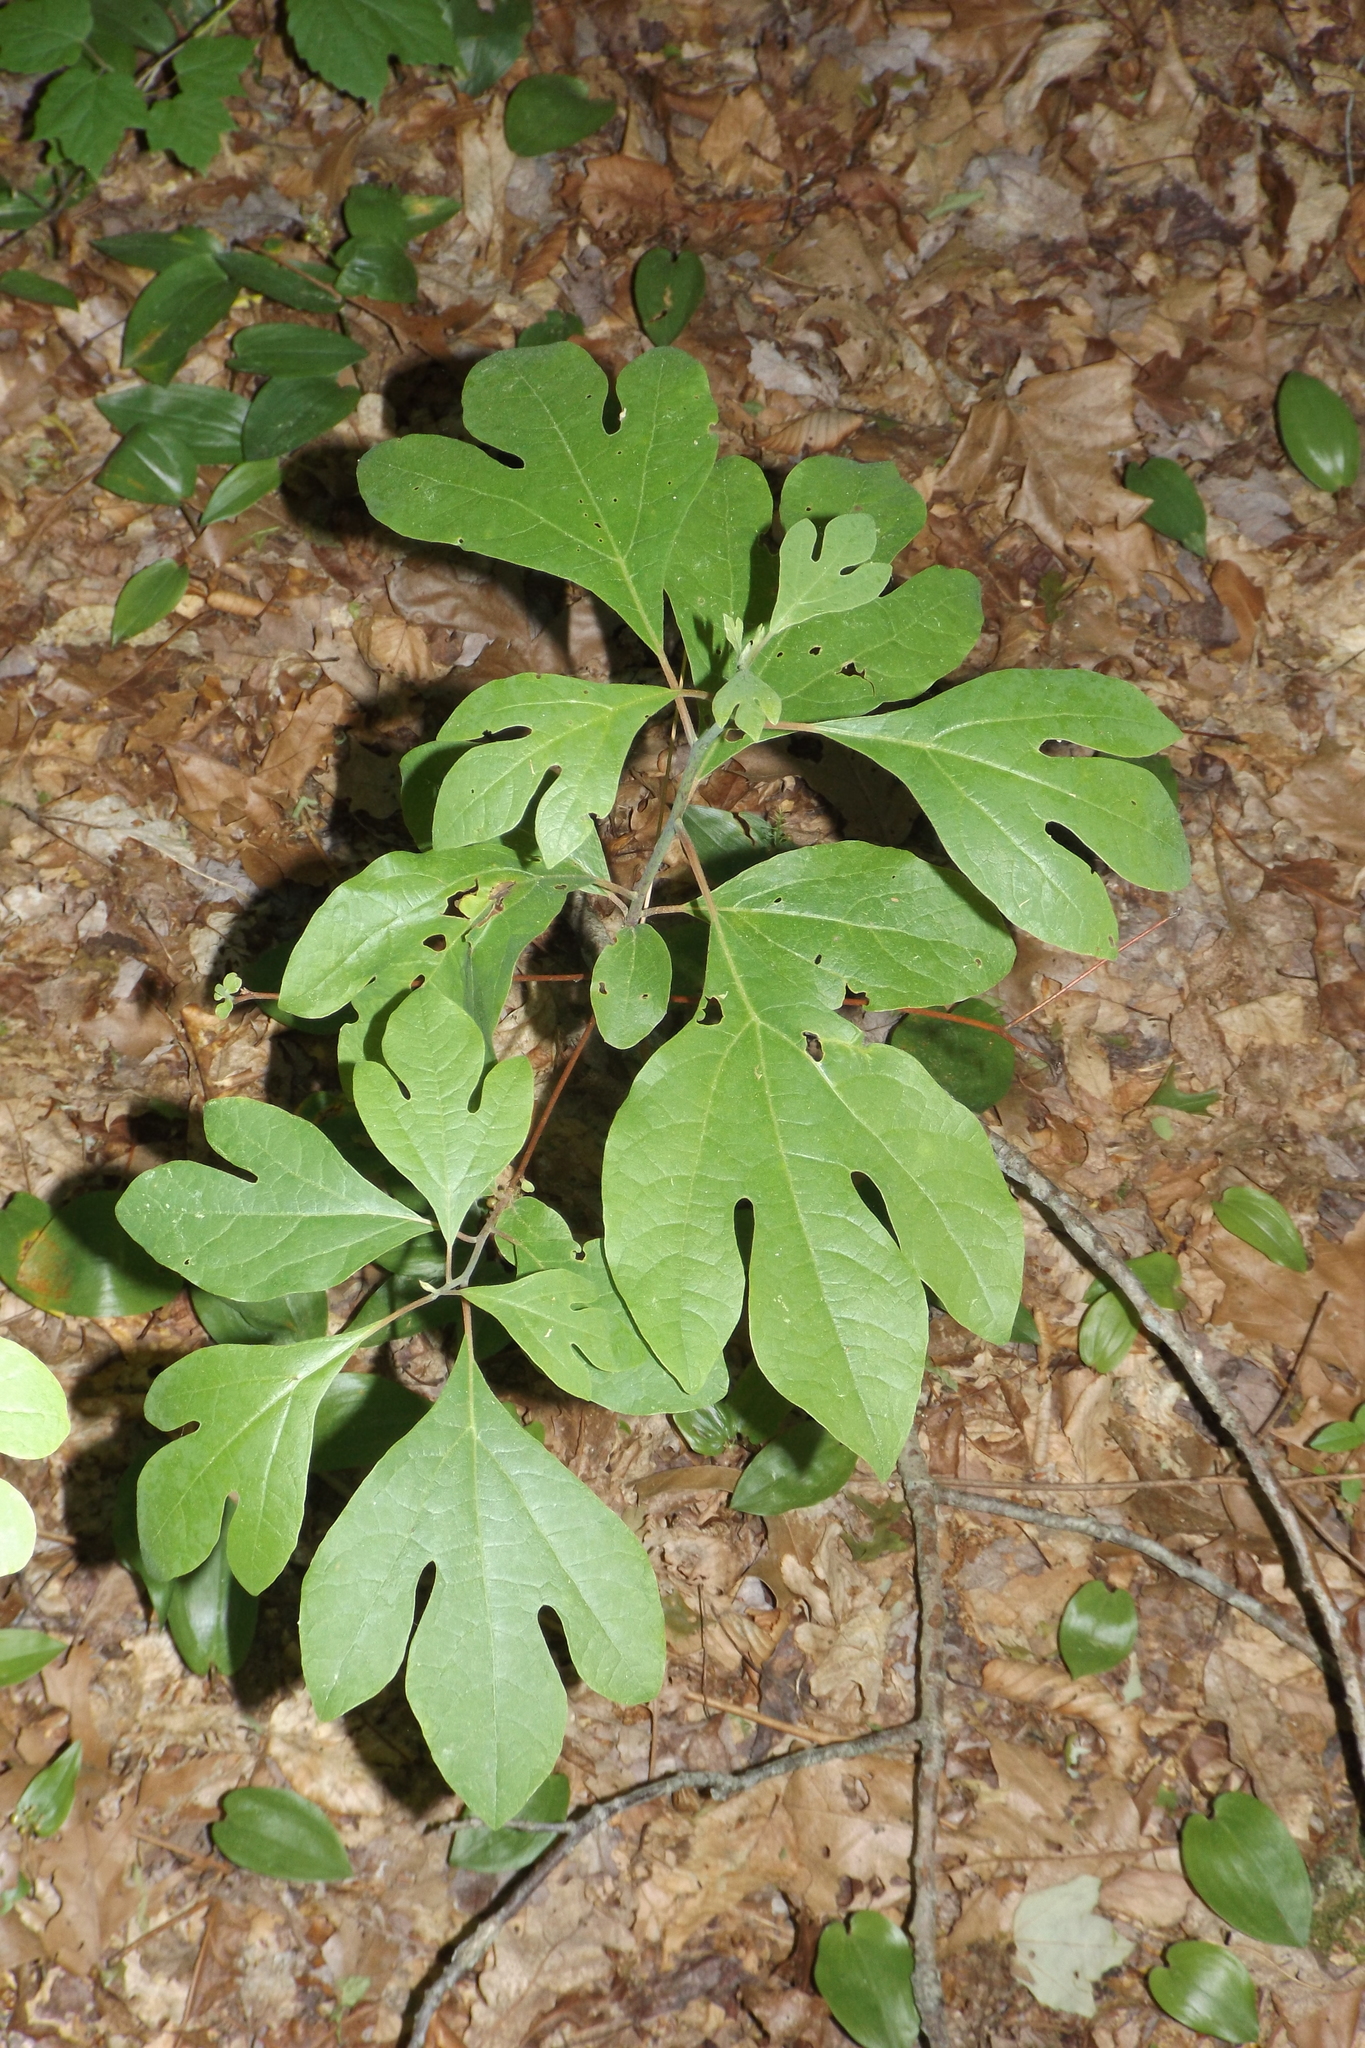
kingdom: Plantae
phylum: Tracheophyta
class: Magnoliopsida
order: Laurales
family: Lauraceae
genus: Sassafras
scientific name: Sassafras albidum
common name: Sassafras
